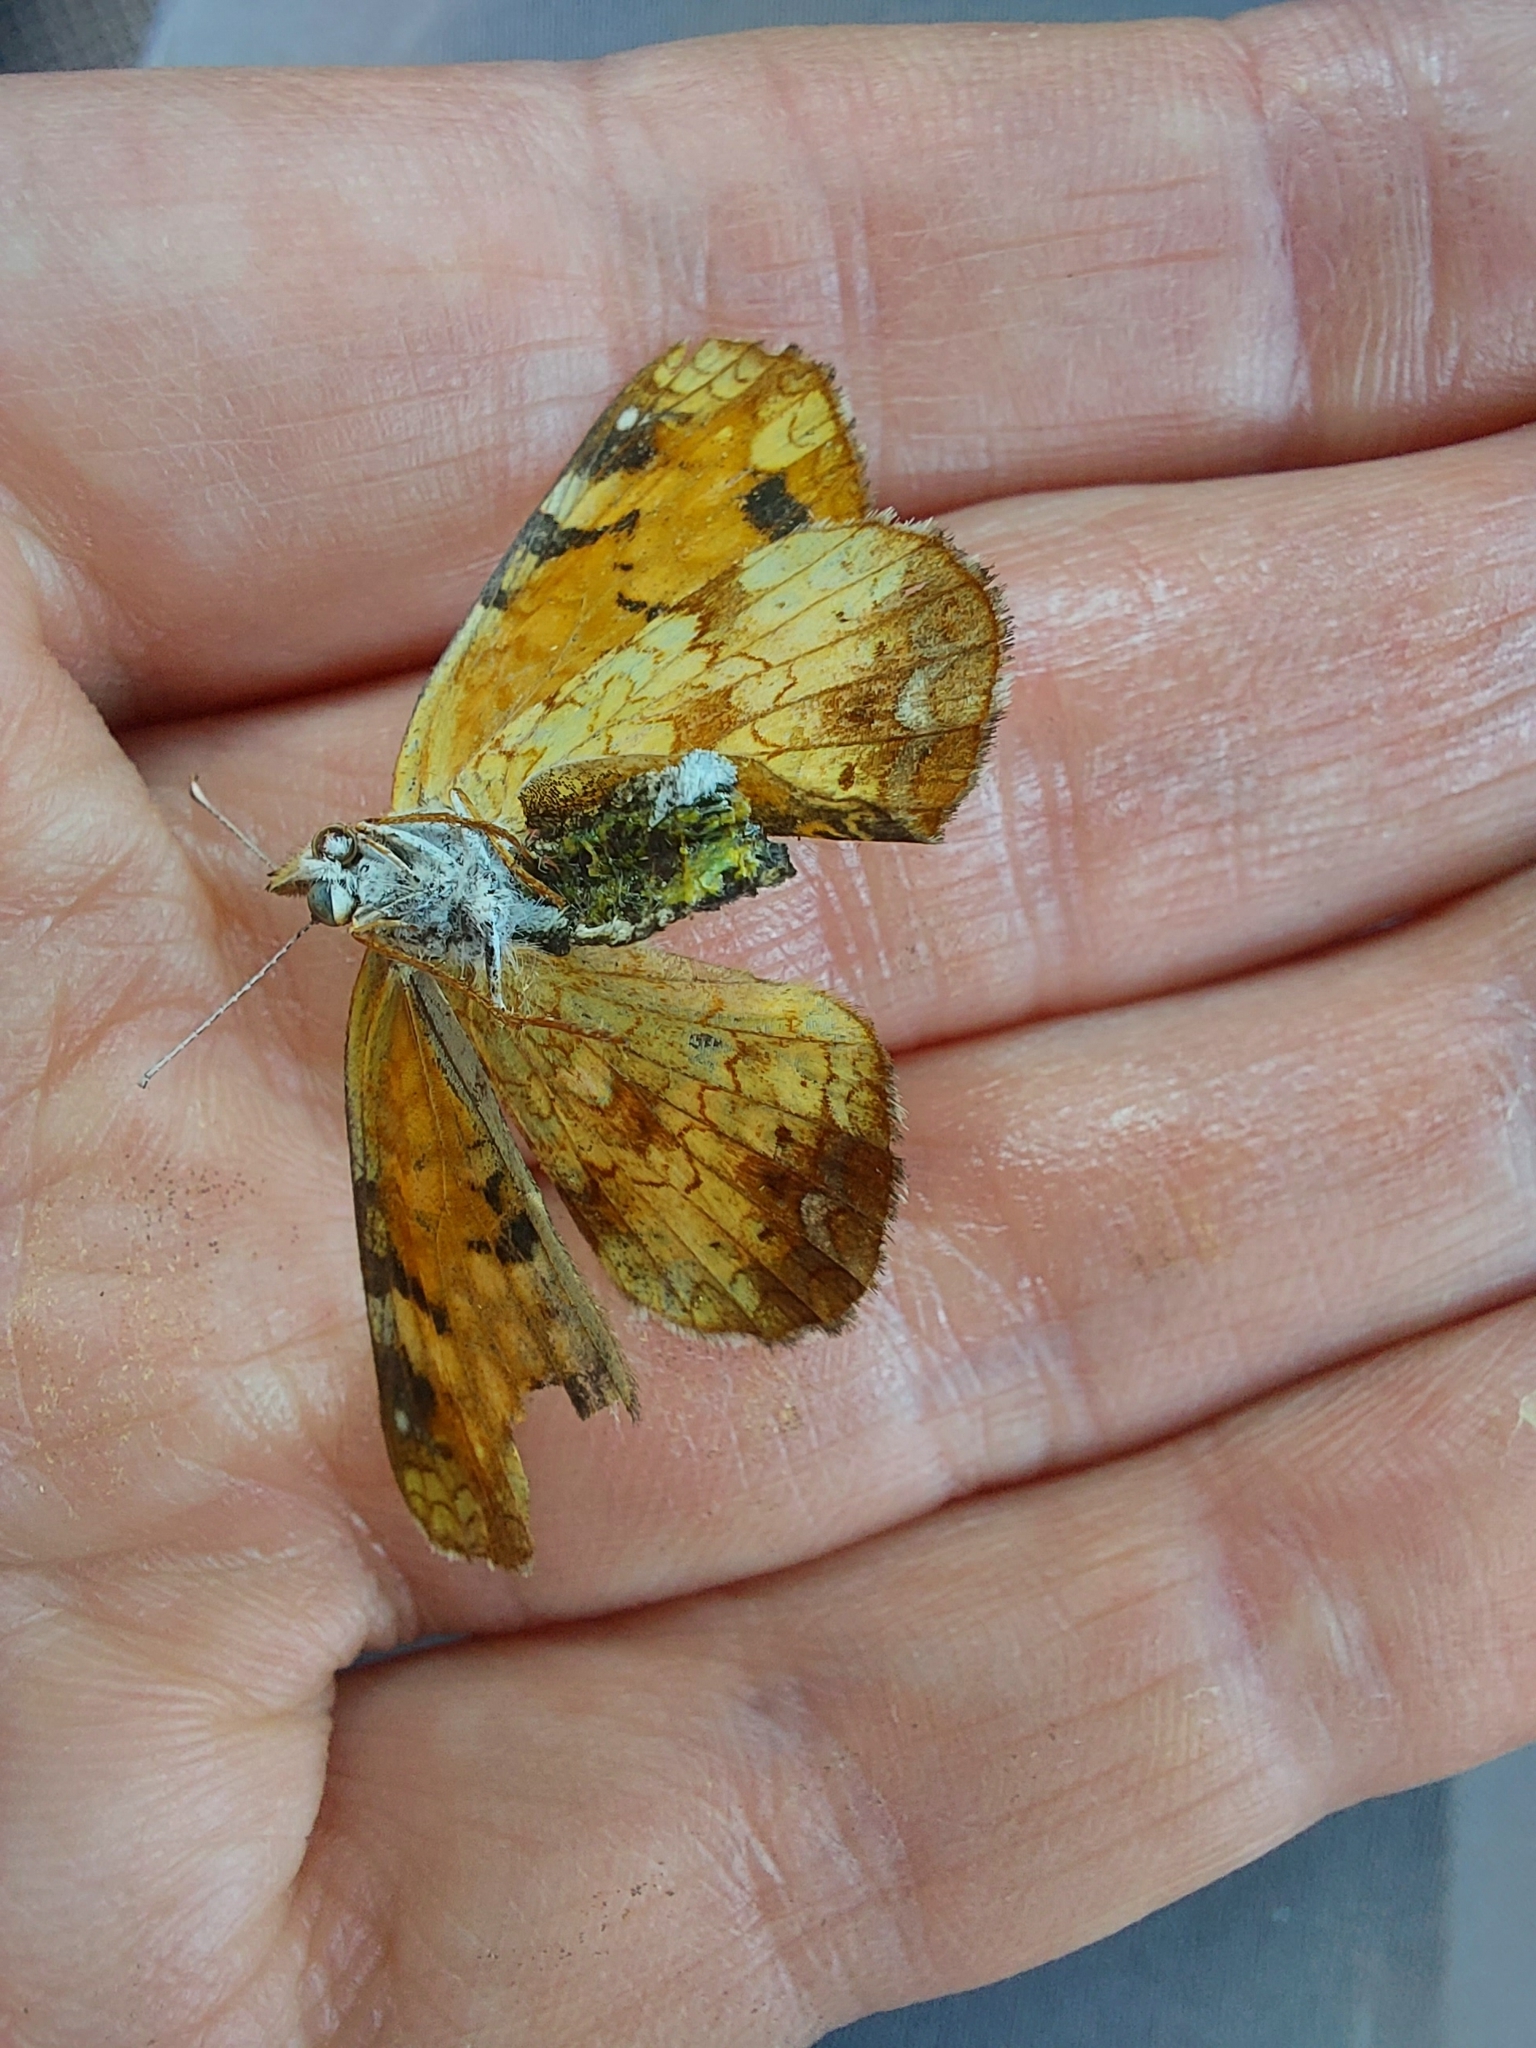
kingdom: Animalia
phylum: Arthropoda
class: Insecta
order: Lepidoptera
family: Nymphalidae
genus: Phyciodes
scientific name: Phyciodes tharos
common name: Pearl crescent
